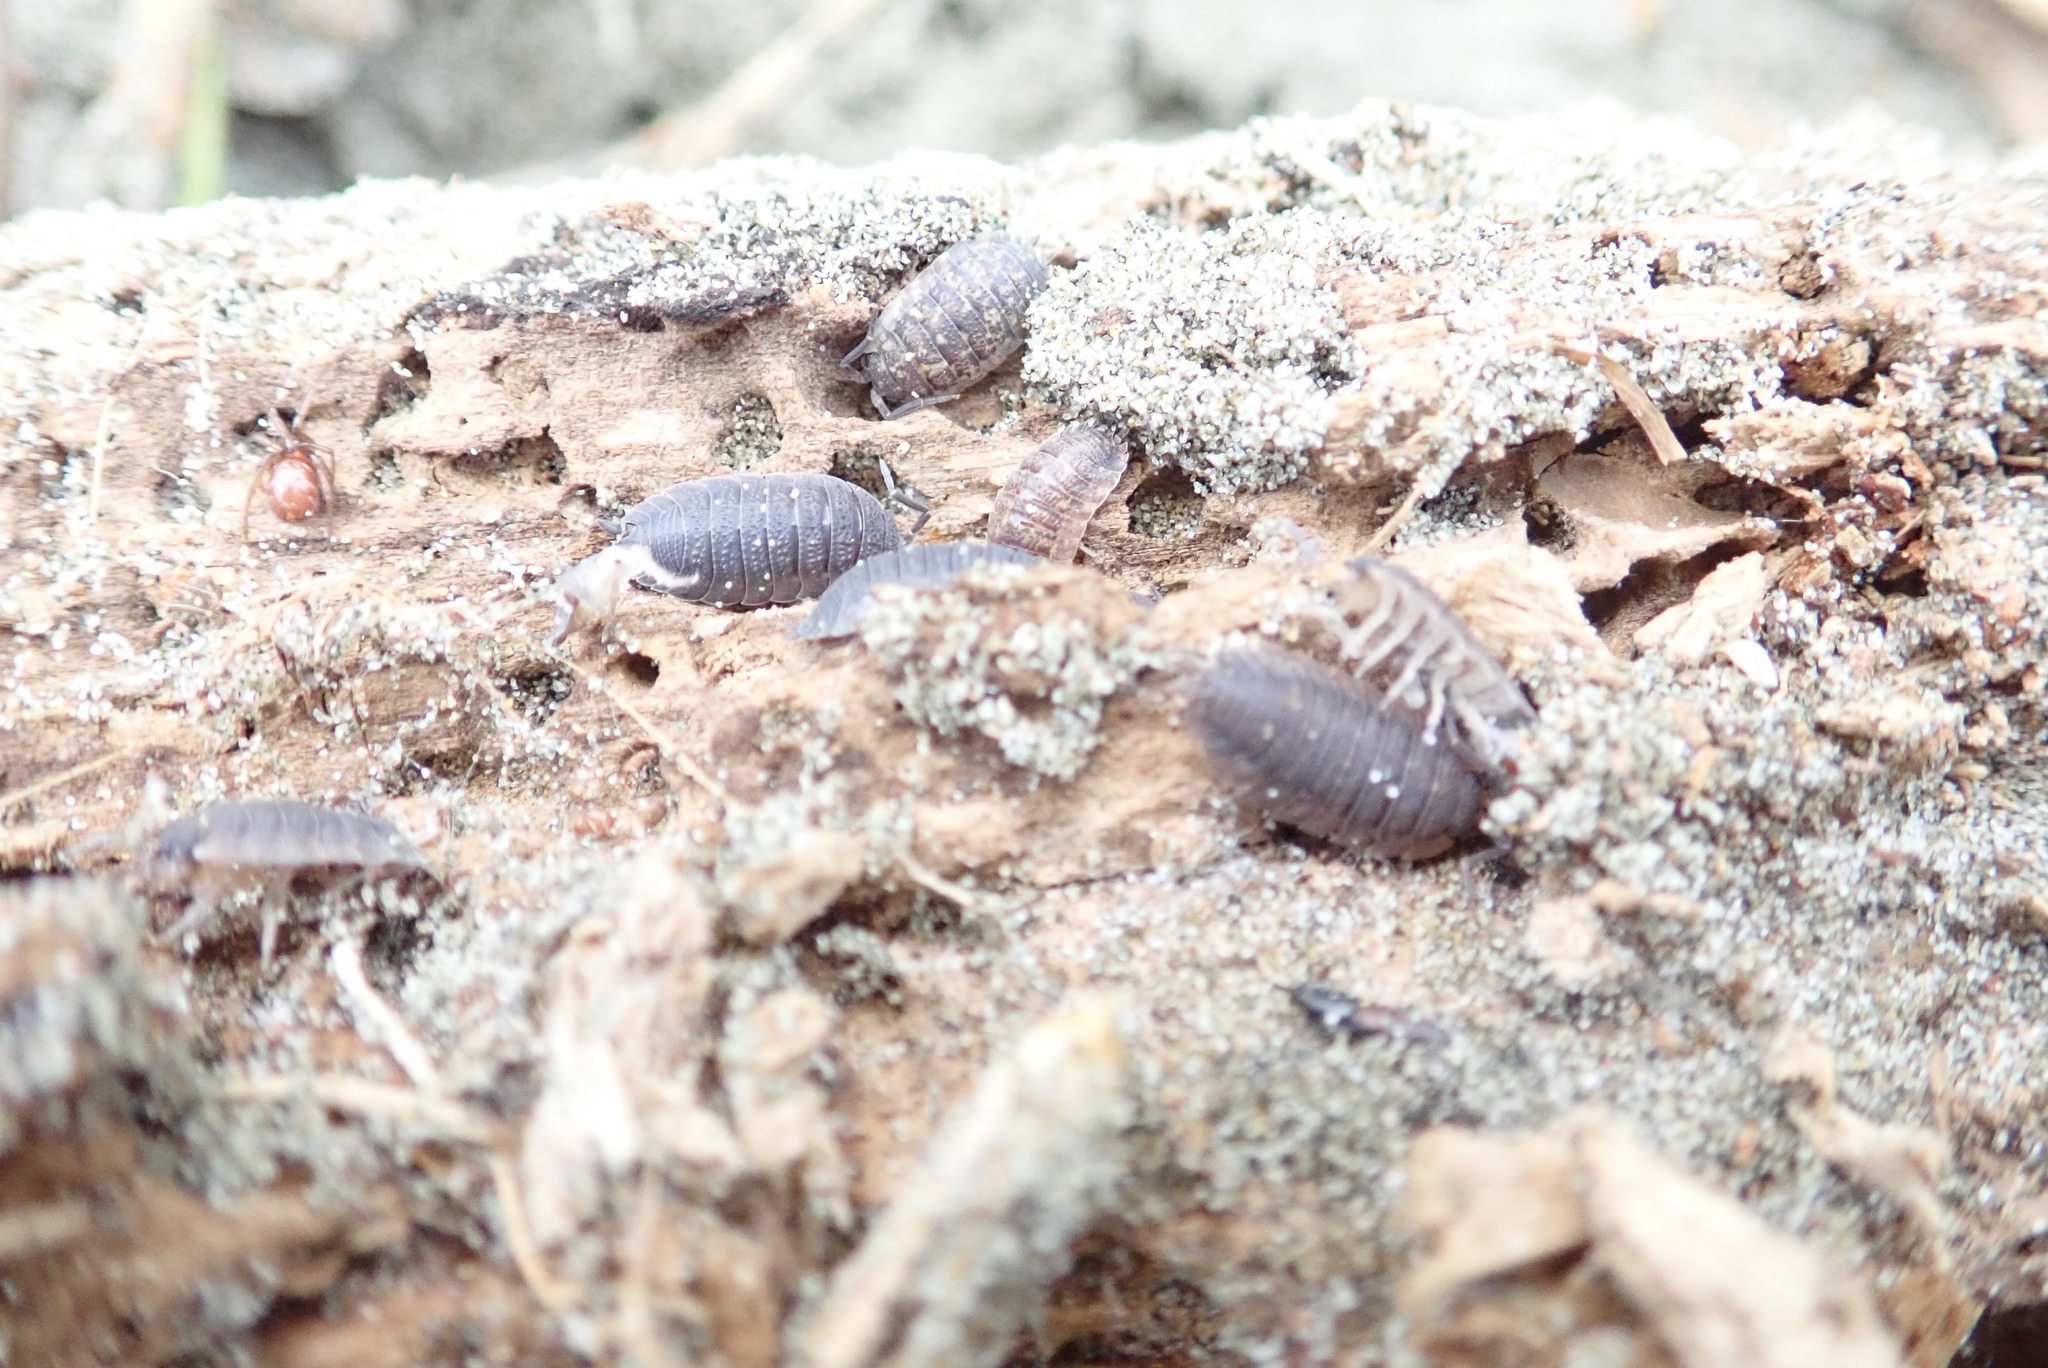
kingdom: Animalia
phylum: Arthropoda
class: Malacostraca
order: Isopoda
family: Porcellionidae
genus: Porcellio
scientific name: Porcellio scaber
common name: Common rough woodlouse
